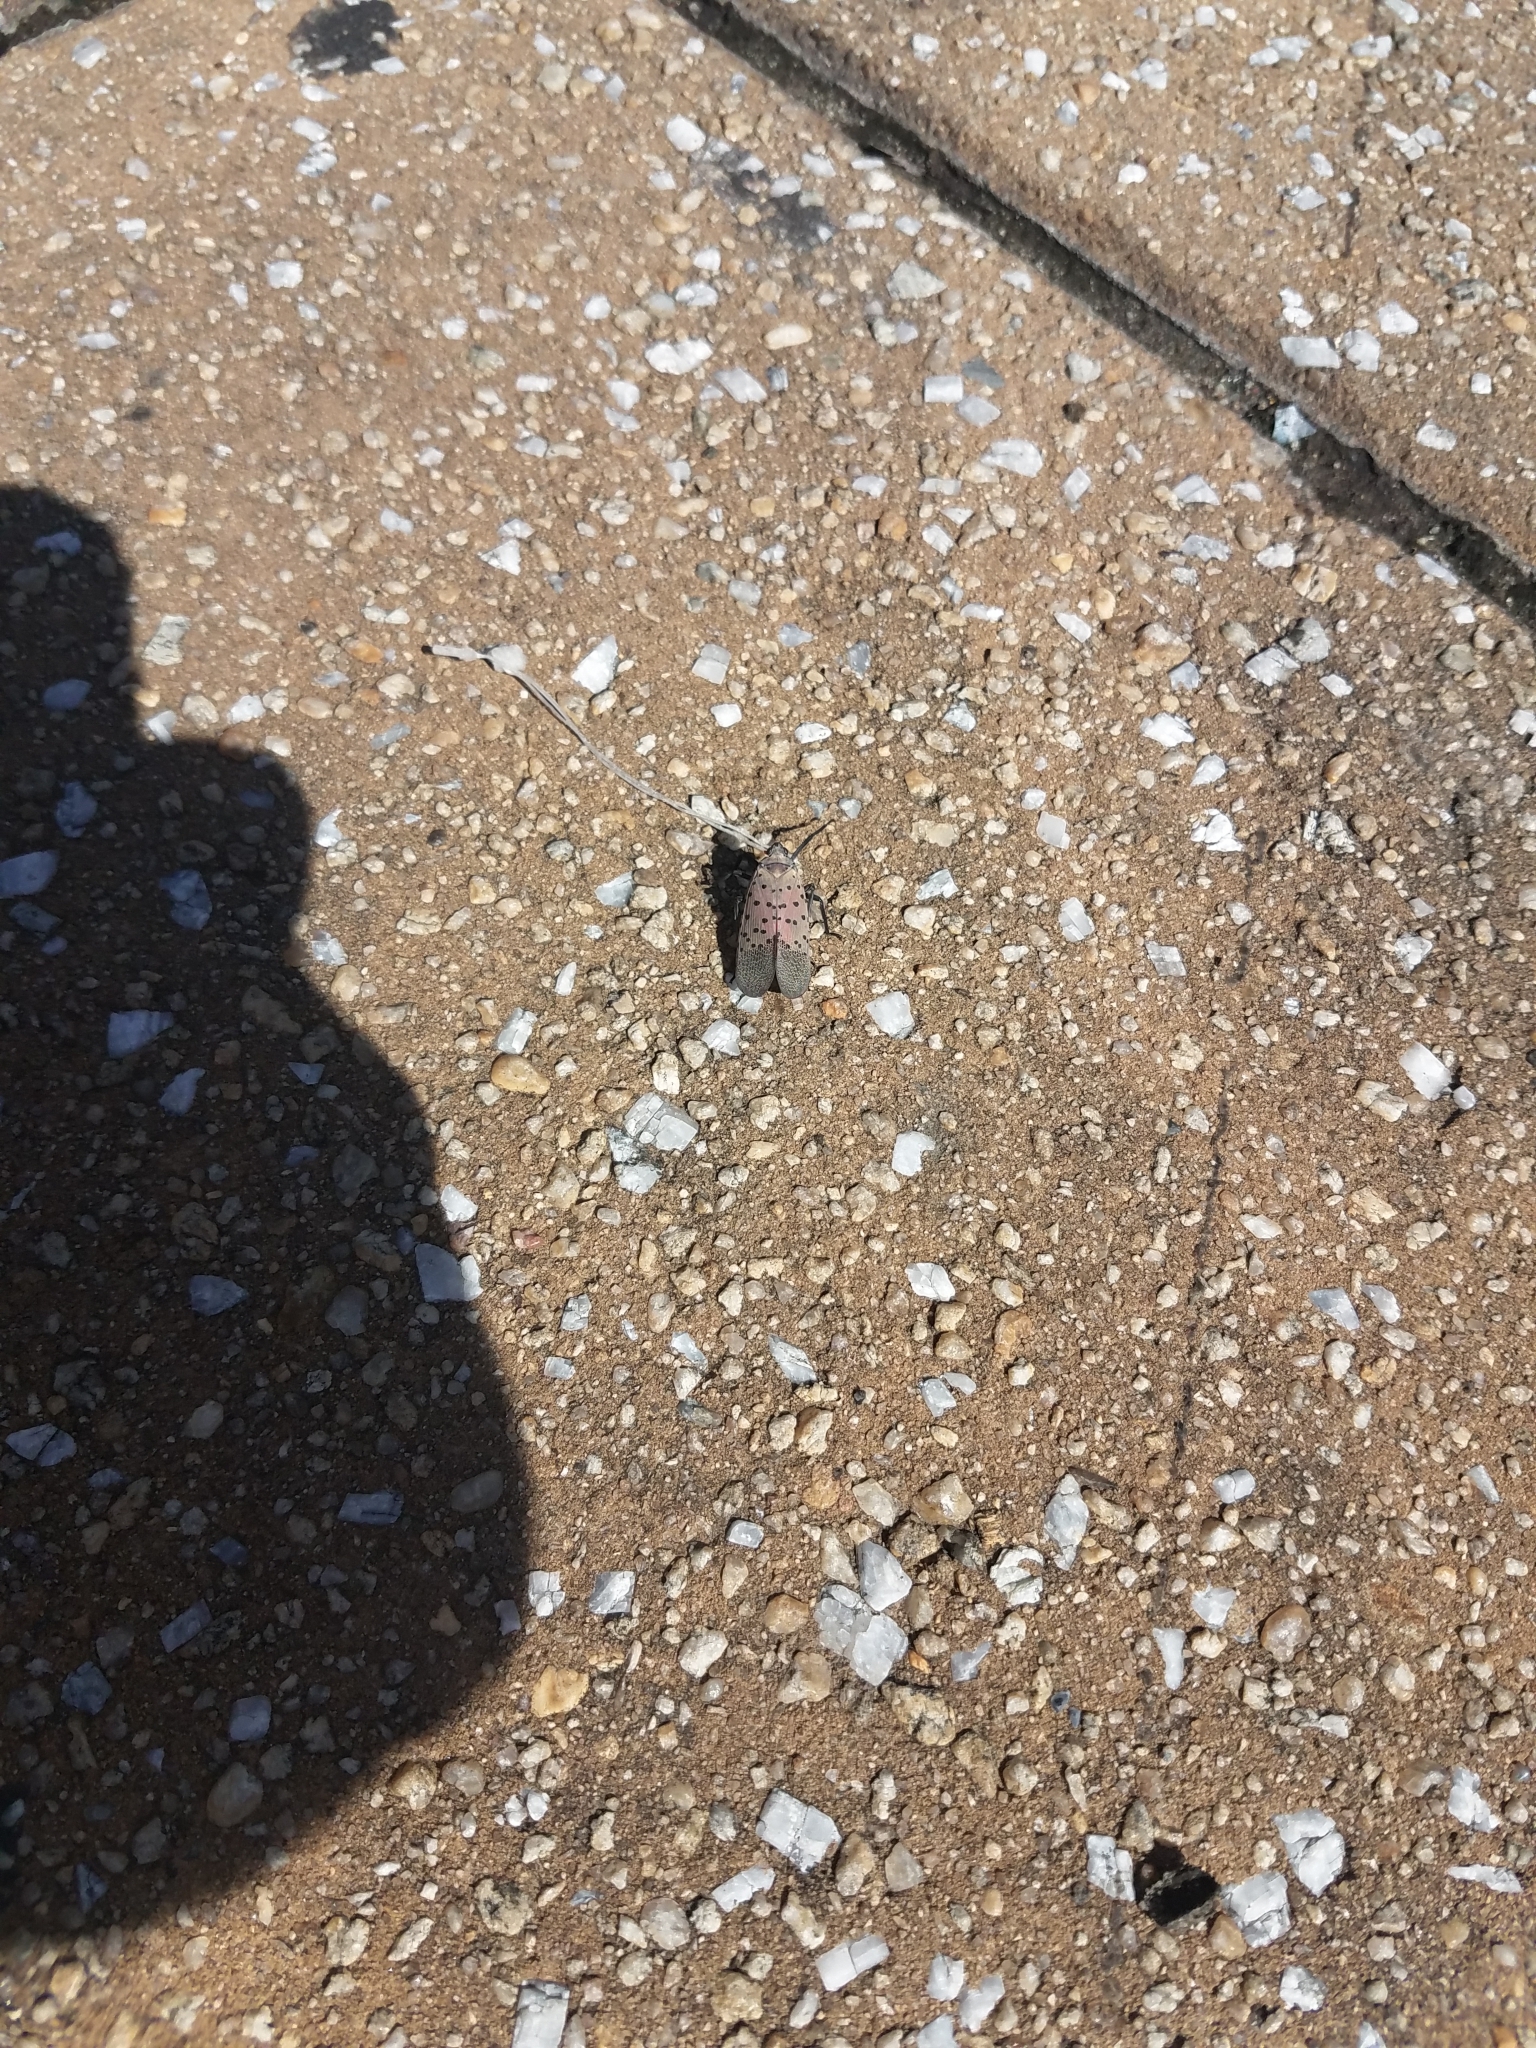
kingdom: Animalia
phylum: Arthropoda
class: Insecta
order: Hemiptera
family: Fulgoridae
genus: Lycorma
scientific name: Lycorma delicatula
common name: Spotted lanternfly
